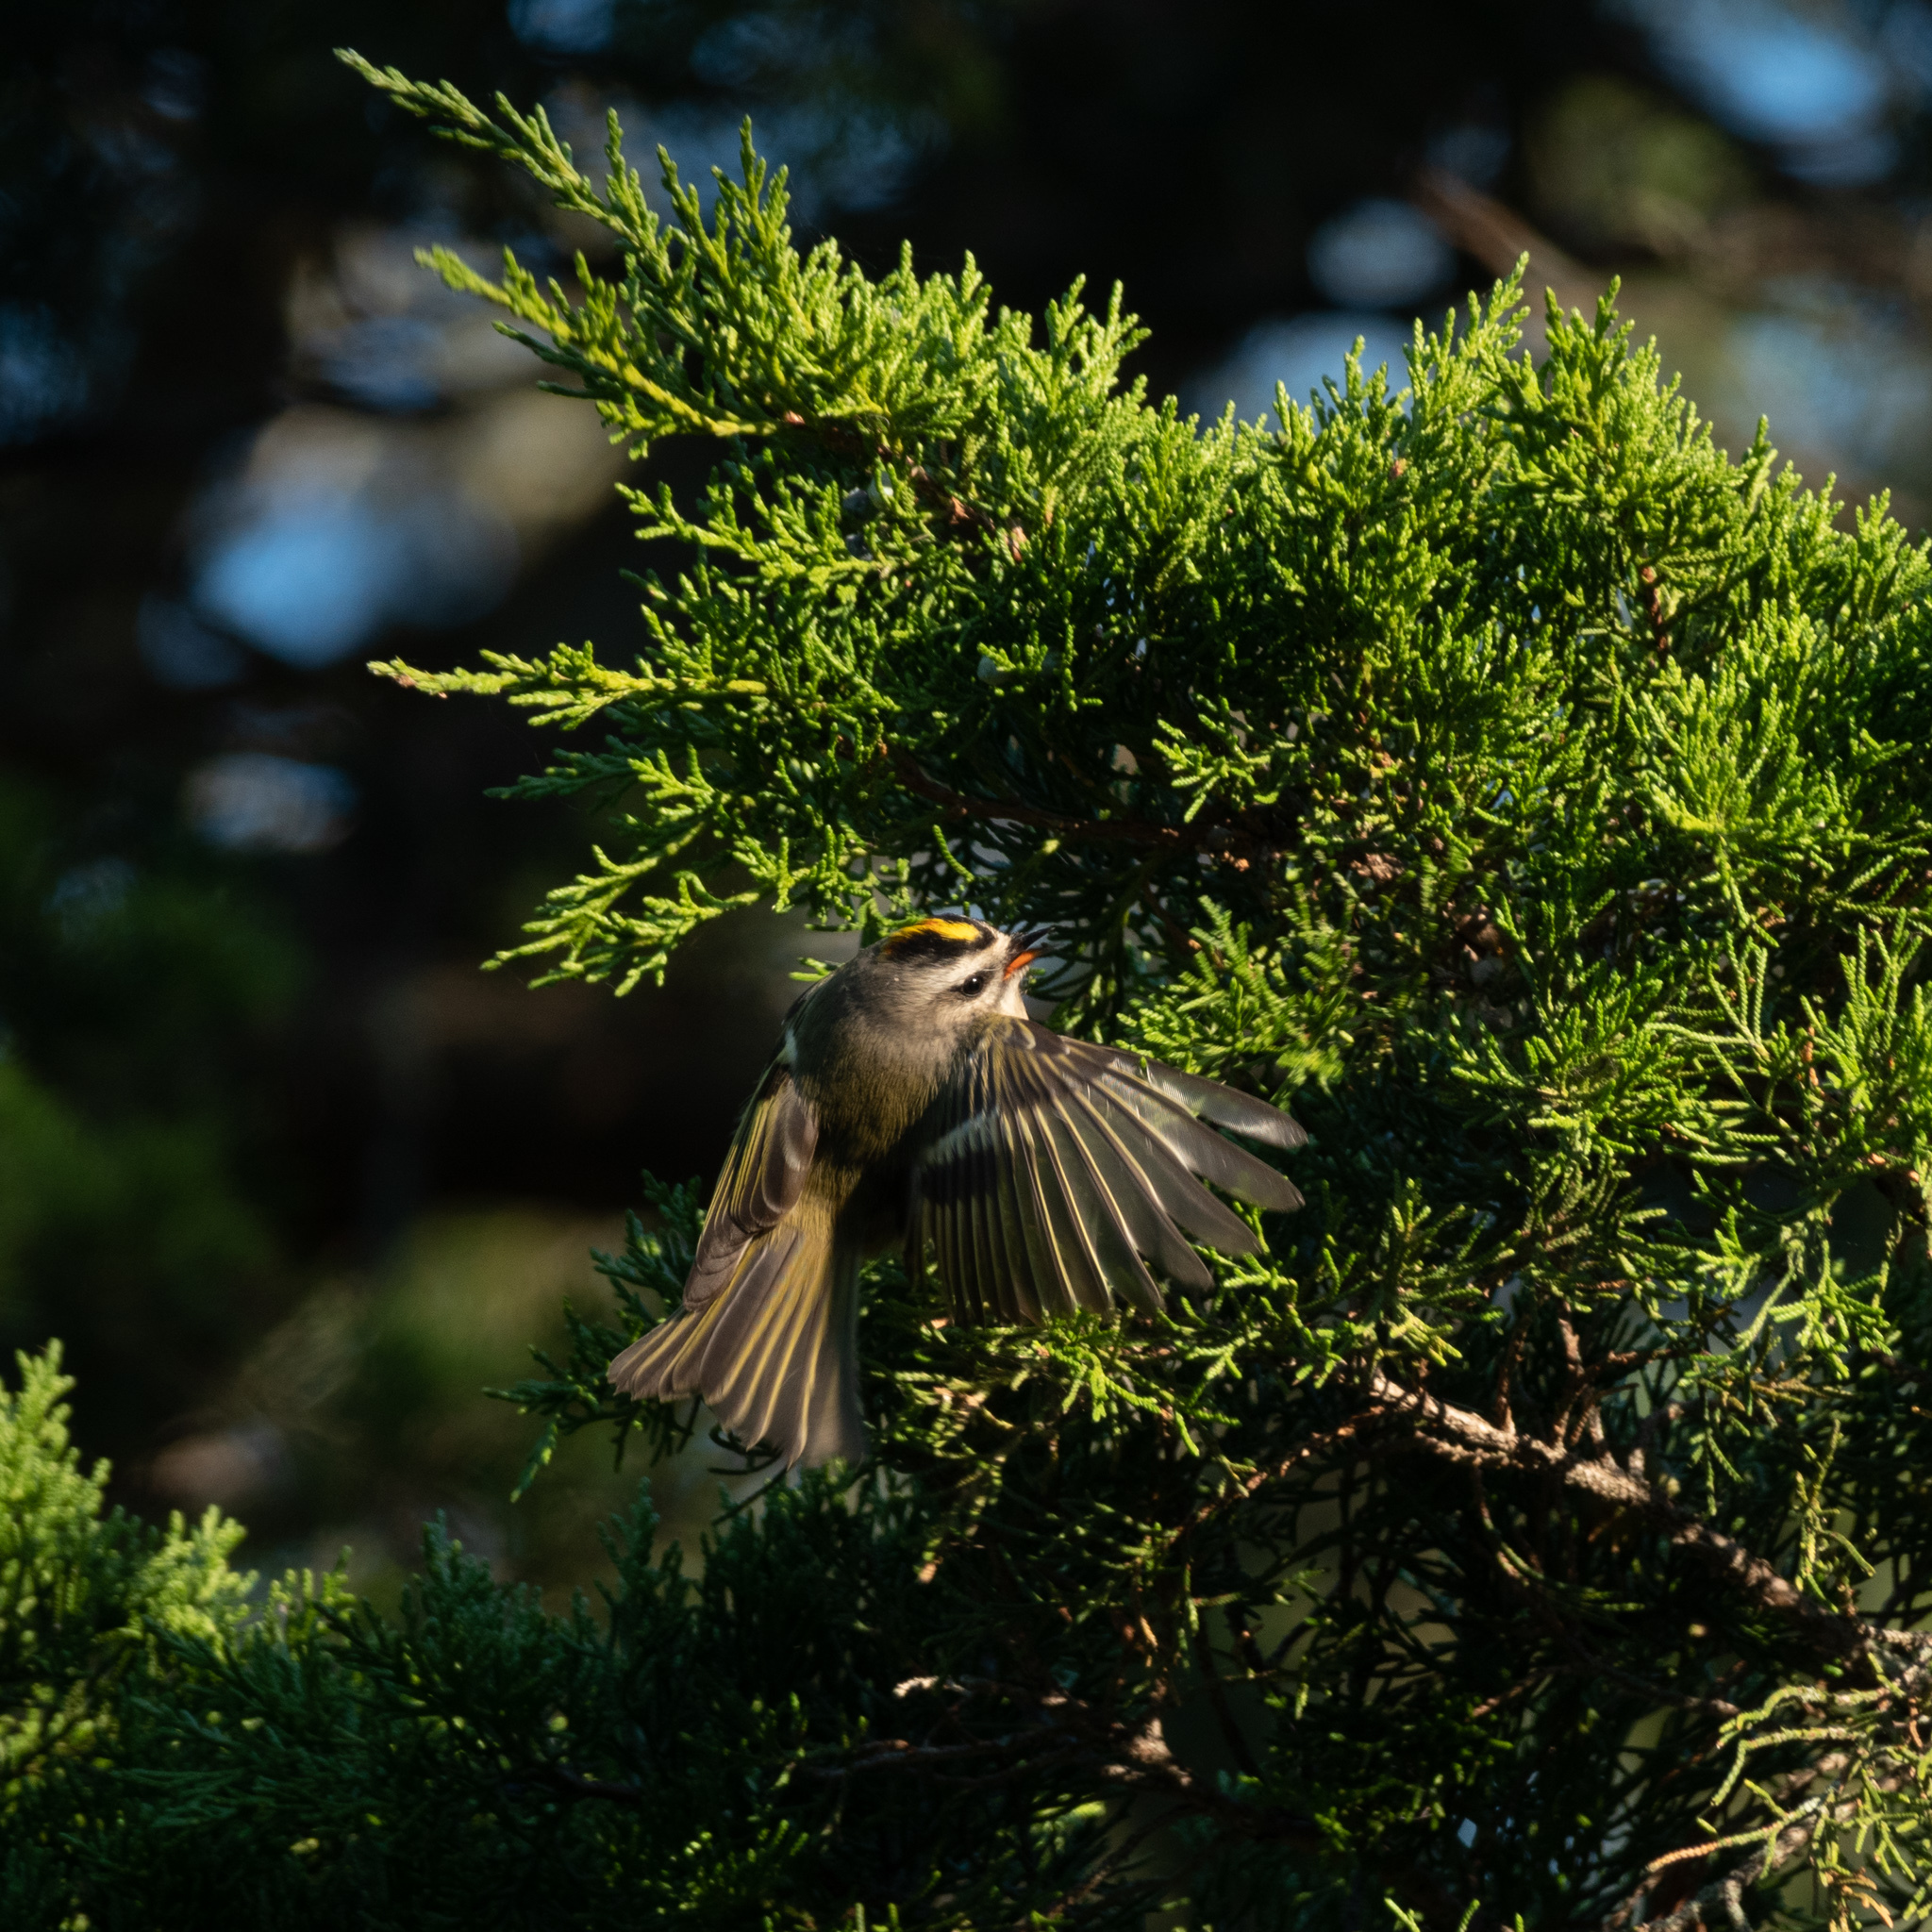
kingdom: Animalia
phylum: Chordata
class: Aves
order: Passeriformes
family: Regulidae
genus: Regulus
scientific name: Regulus satrapa
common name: Golden-crowned kinglet
